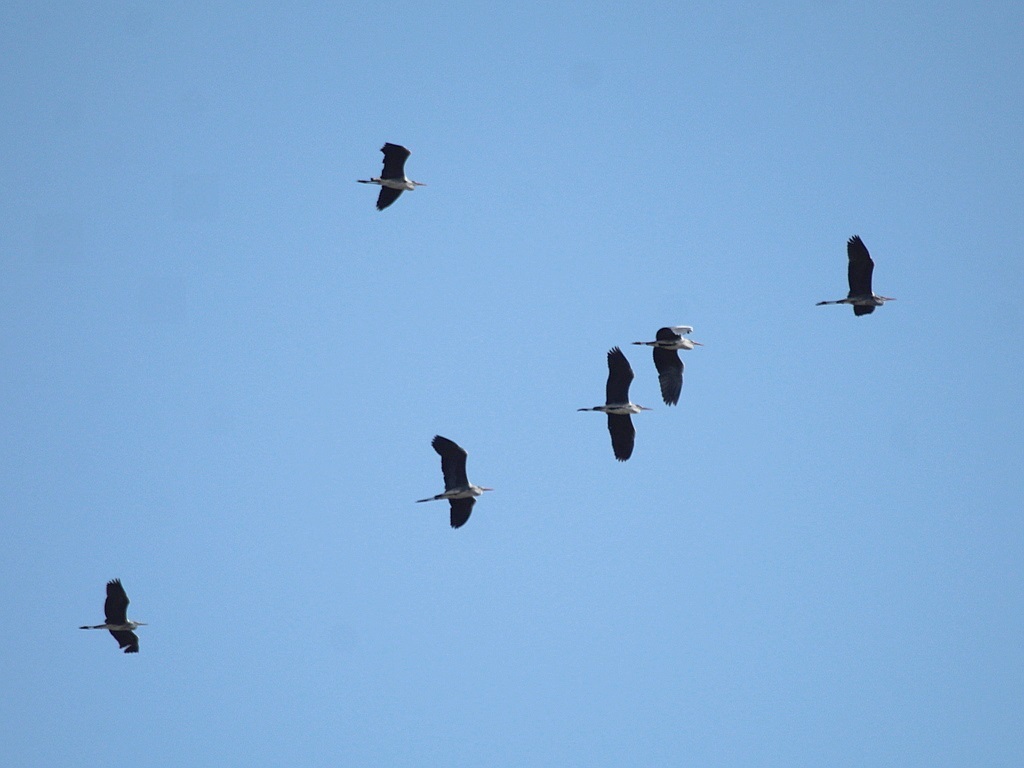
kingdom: Animalia
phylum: Chordata
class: Aves
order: Pelecaniformes
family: Ardeidae
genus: Ardea
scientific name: Ardea cinerea
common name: Grey heron
